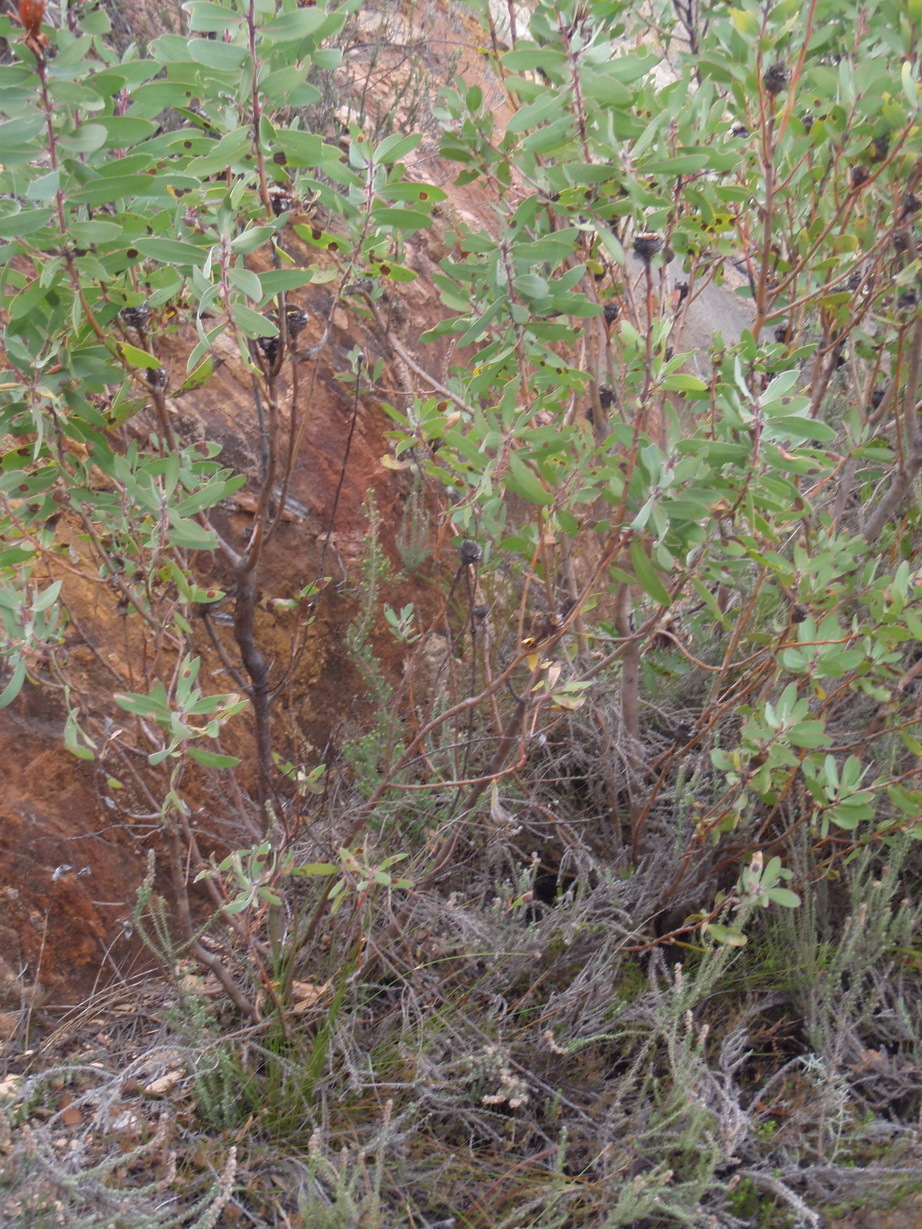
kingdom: Plantae
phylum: Tracheophyta
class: Magnoliopsida
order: Proteales
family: Proteaceae
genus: Protea
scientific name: Protea punctata
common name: Water sugarbush
